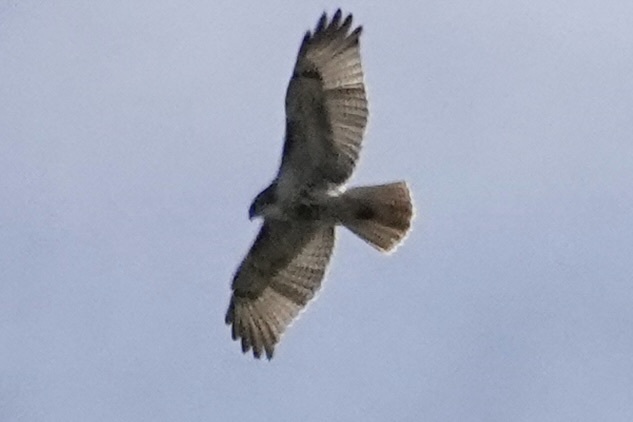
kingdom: Animalia
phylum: Chordata
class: Aves
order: Accipitriformes
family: Accipitridae
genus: Buteo
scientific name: Buteo jamaicensis
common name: Red-tailed hawk
